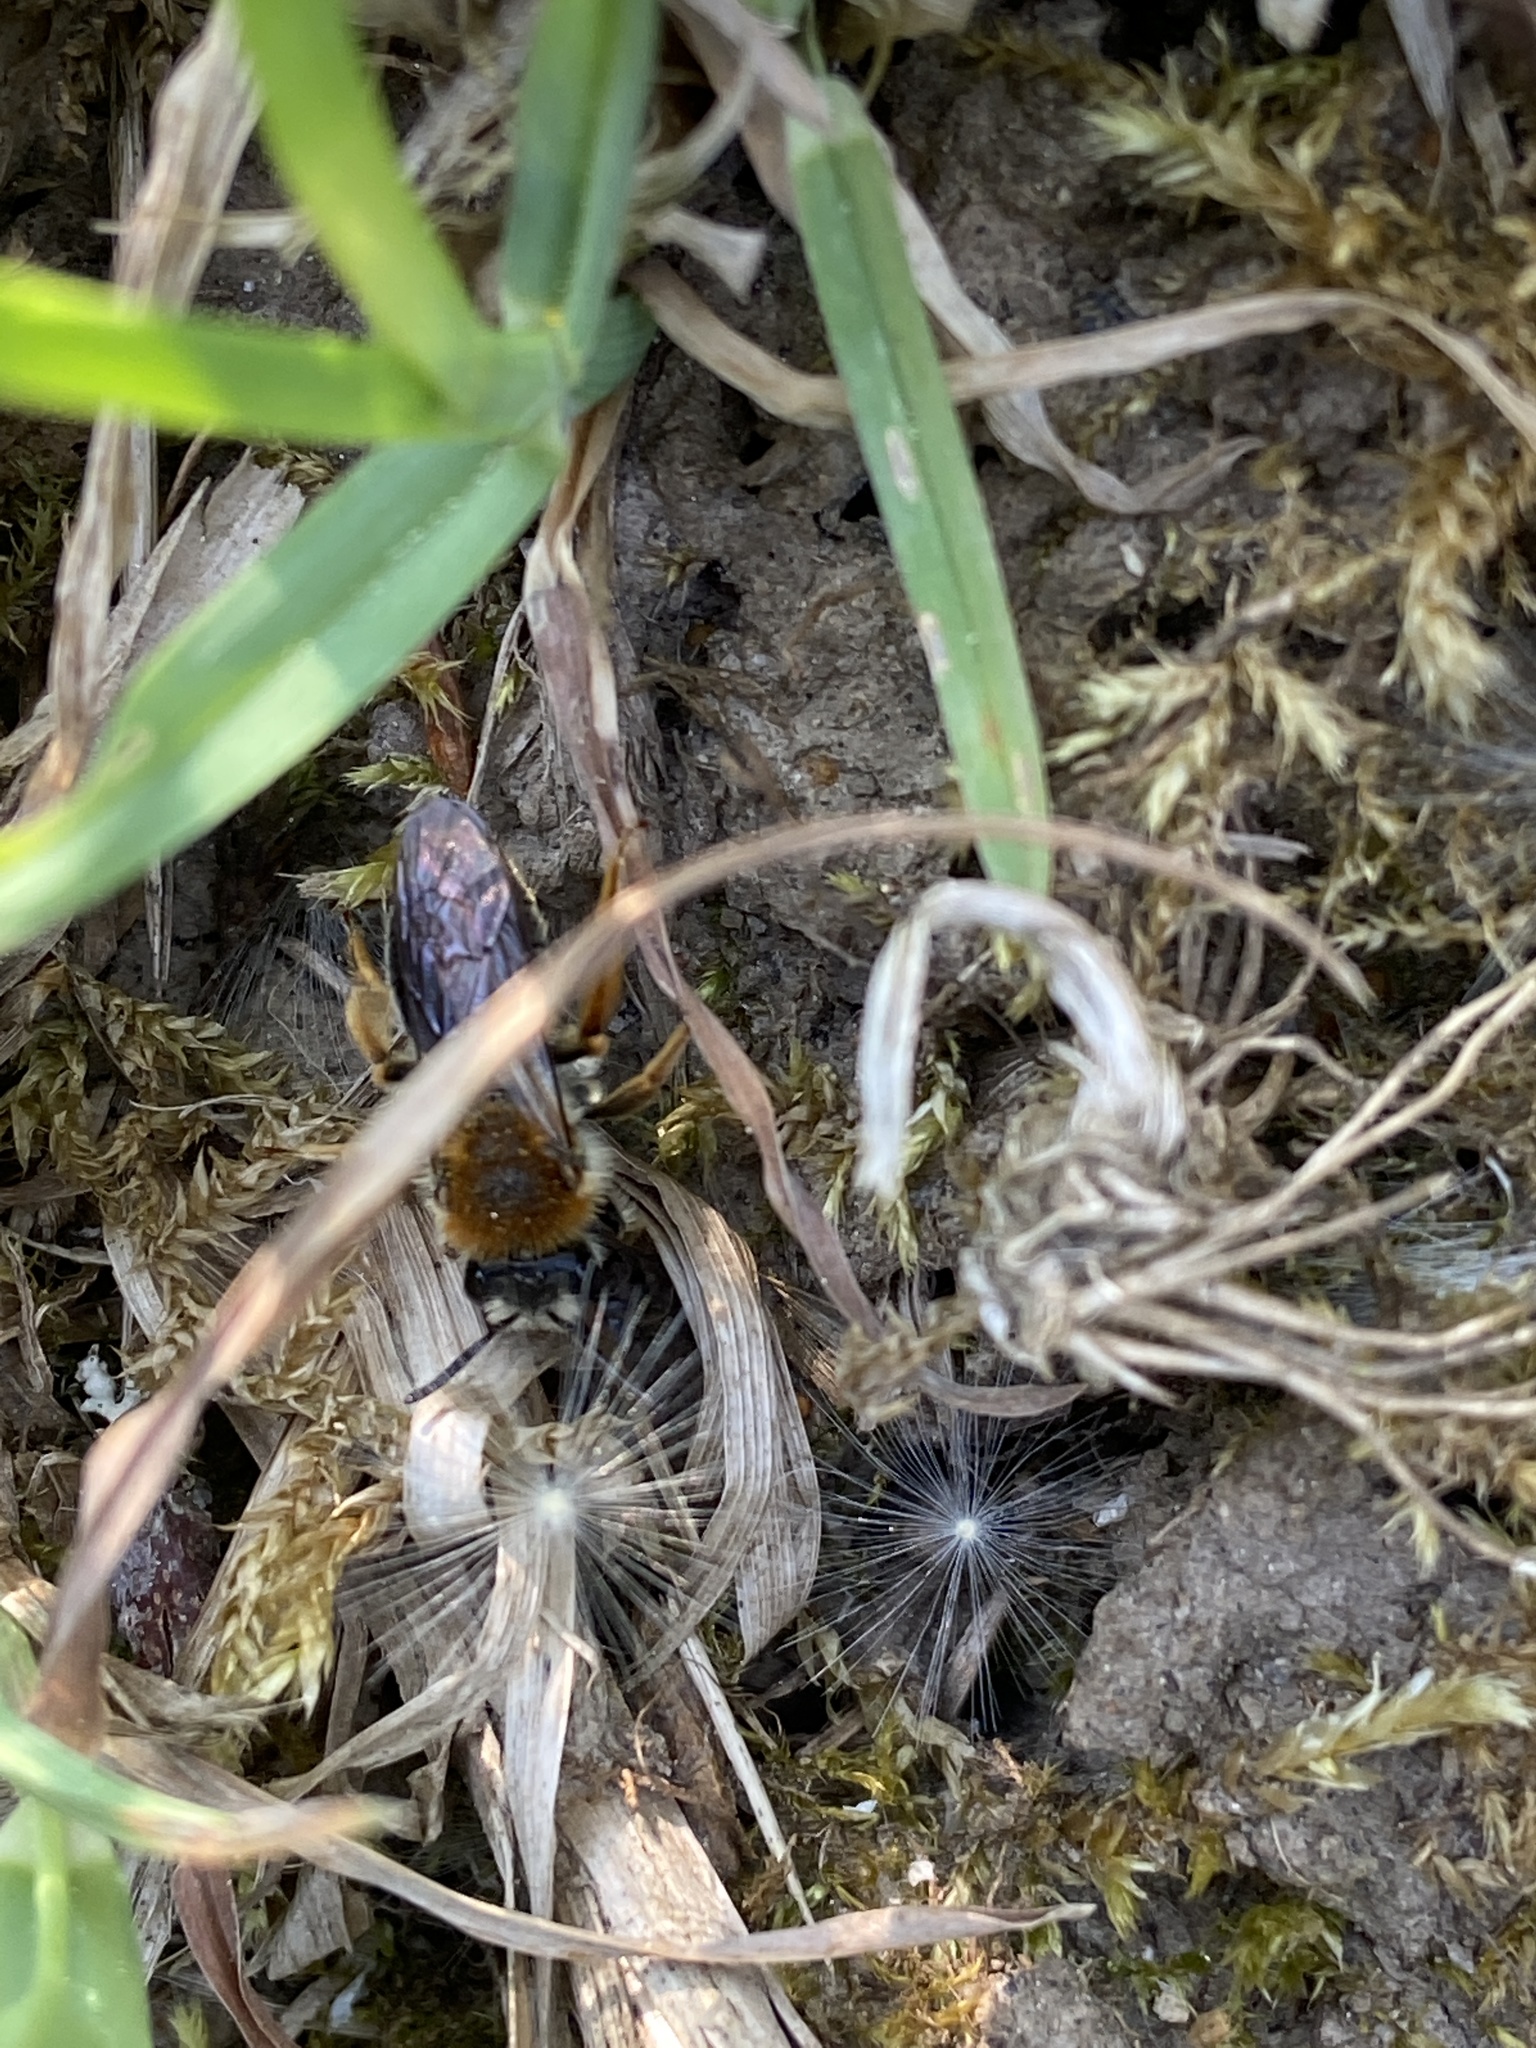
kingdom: Animalia
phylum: Arthropoda
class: Insecta
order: Hymenoptera
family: Andrenidae
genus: Andrena
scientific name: Andrena haemorrhoa
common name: Early mining bee
